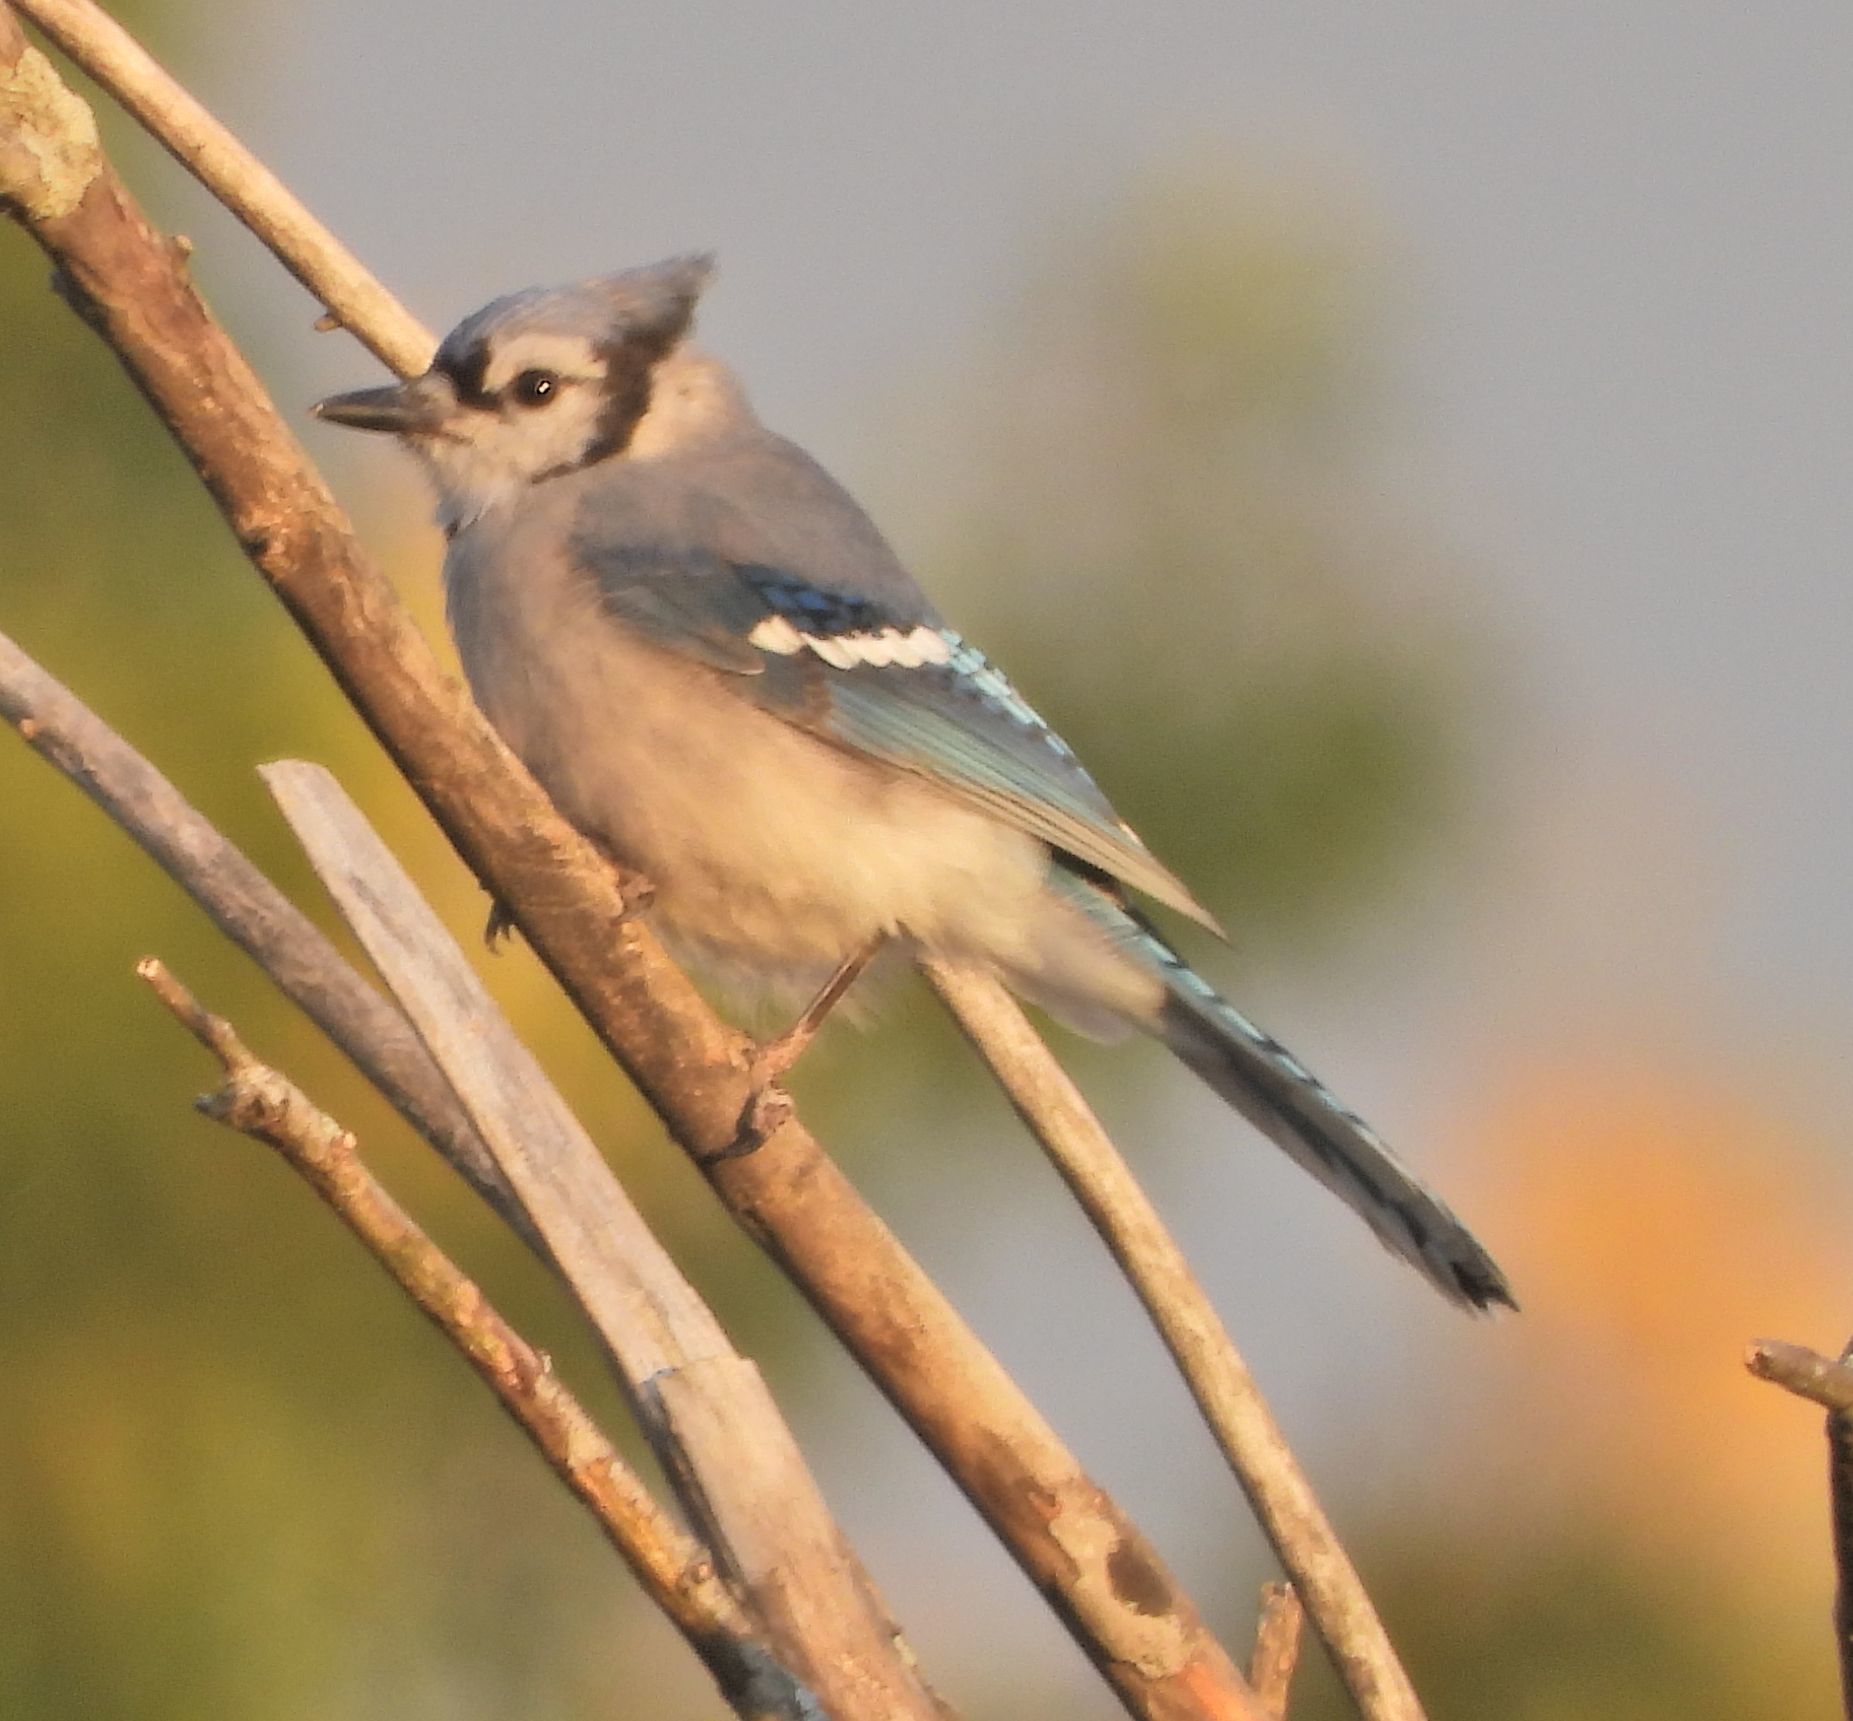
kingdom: Animalia
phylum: Chordata
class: Aves
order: Passeriformes
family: Corvidae
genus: Cyanocitta
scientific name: Cyanocitta cristata
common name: Blue jay
